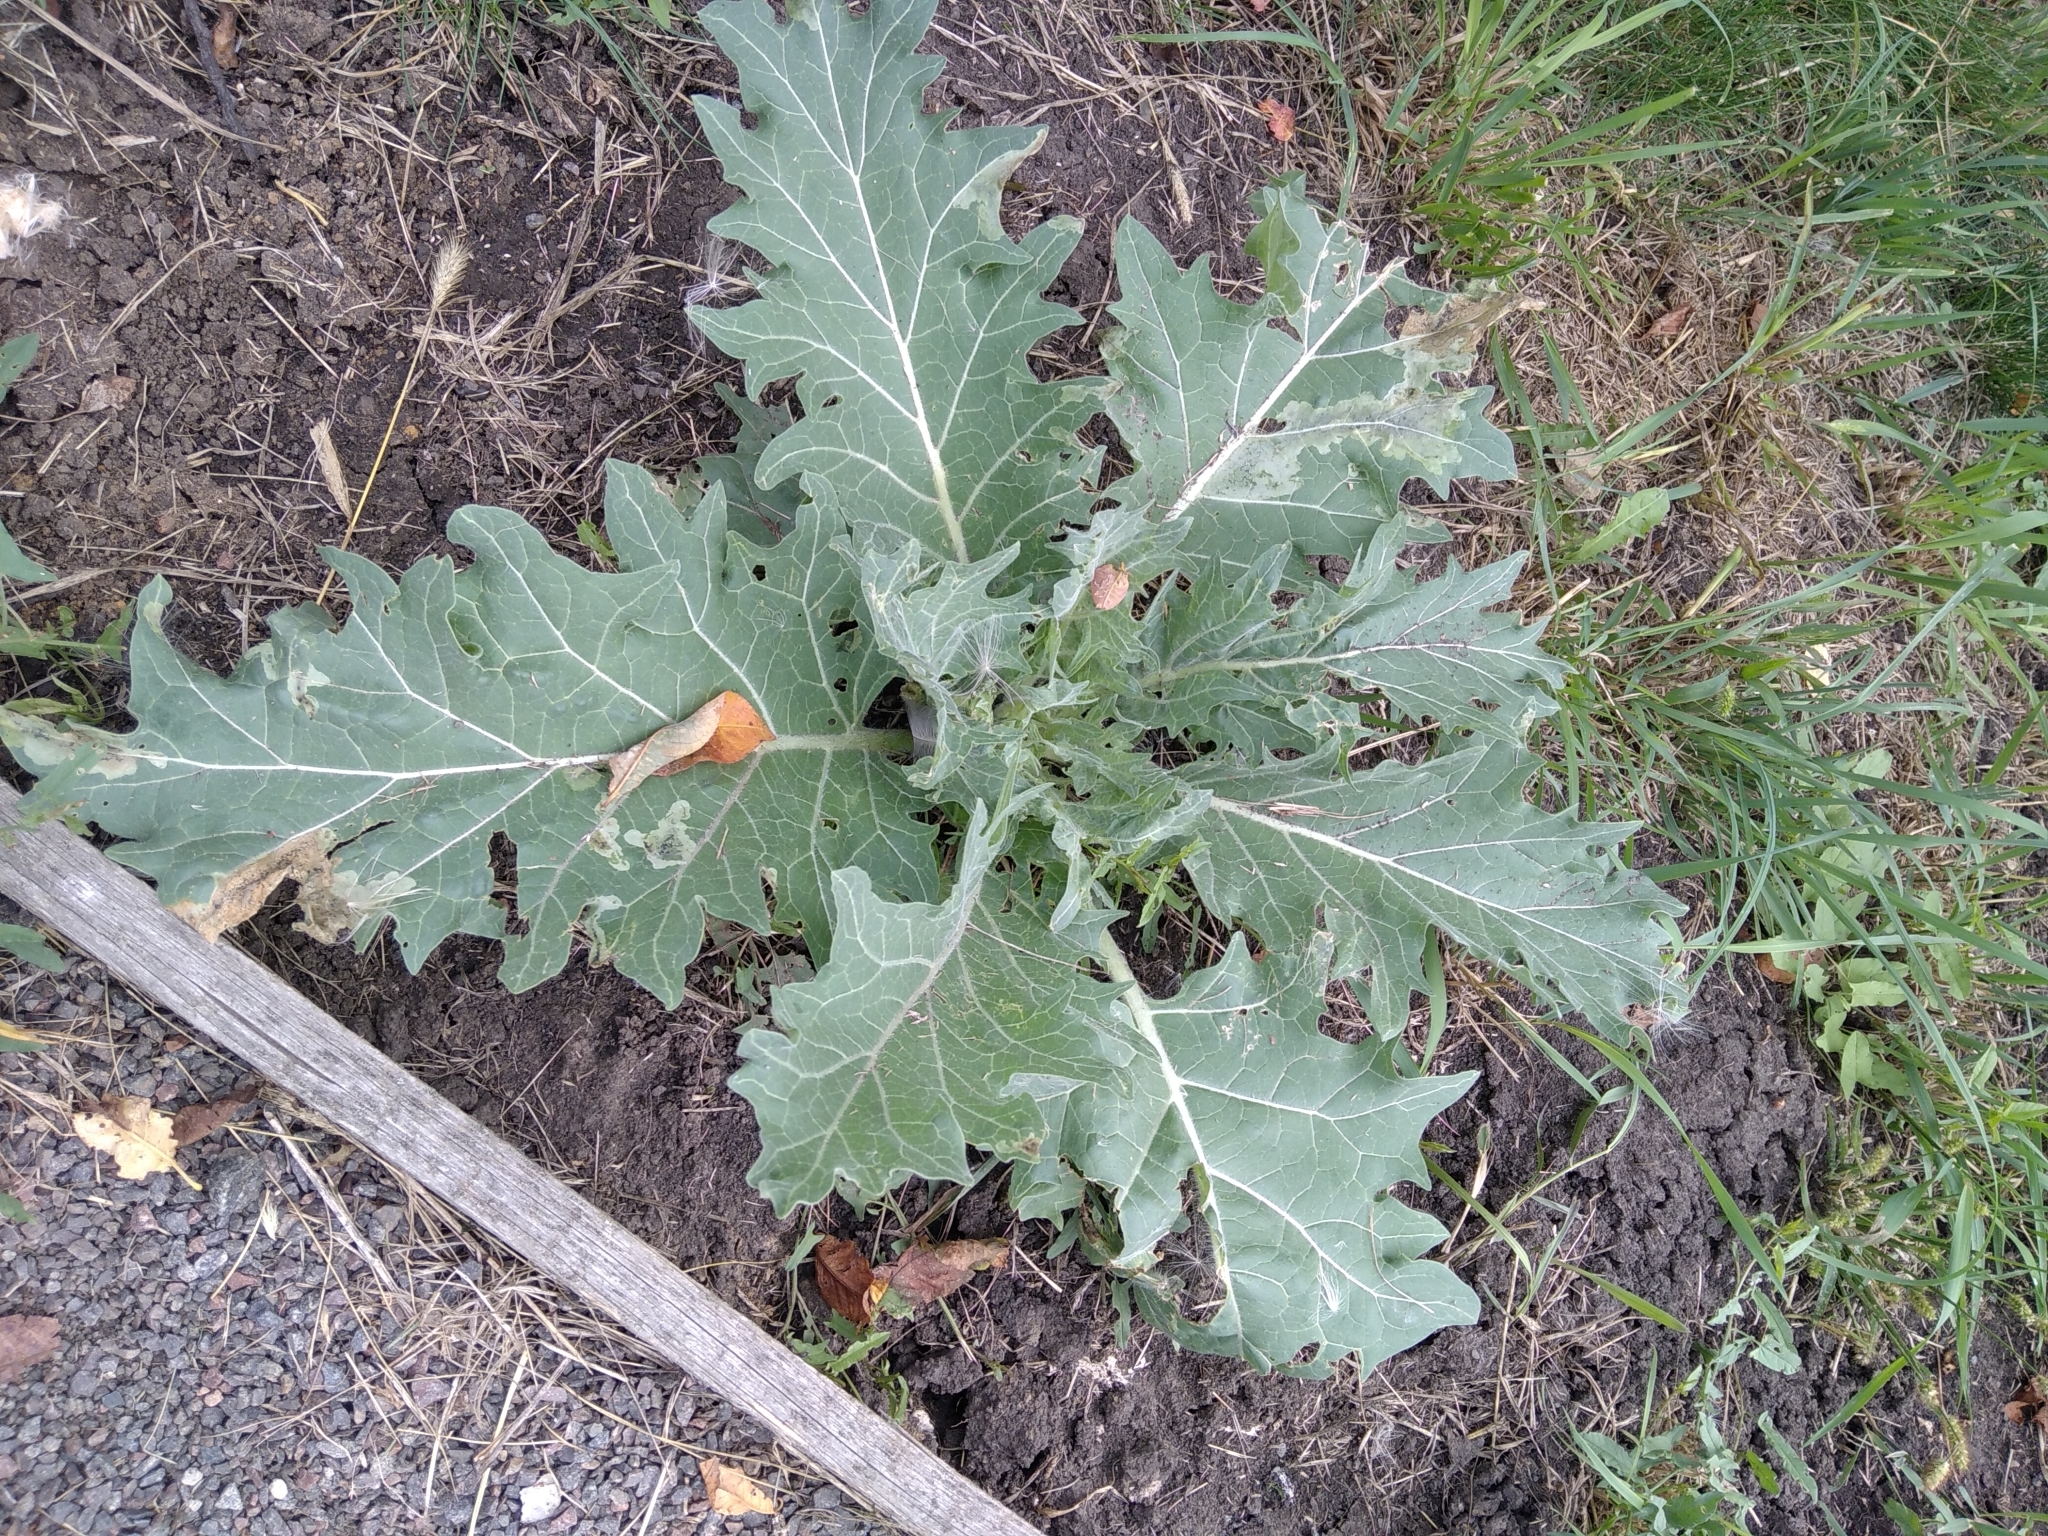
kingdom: Plantae
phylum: Tracheophyta
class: Magnoliopsida
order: Solanales
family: Solanaceae
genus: Hyoscyamus
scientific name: Hyoscyamus niger
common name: Henbane
